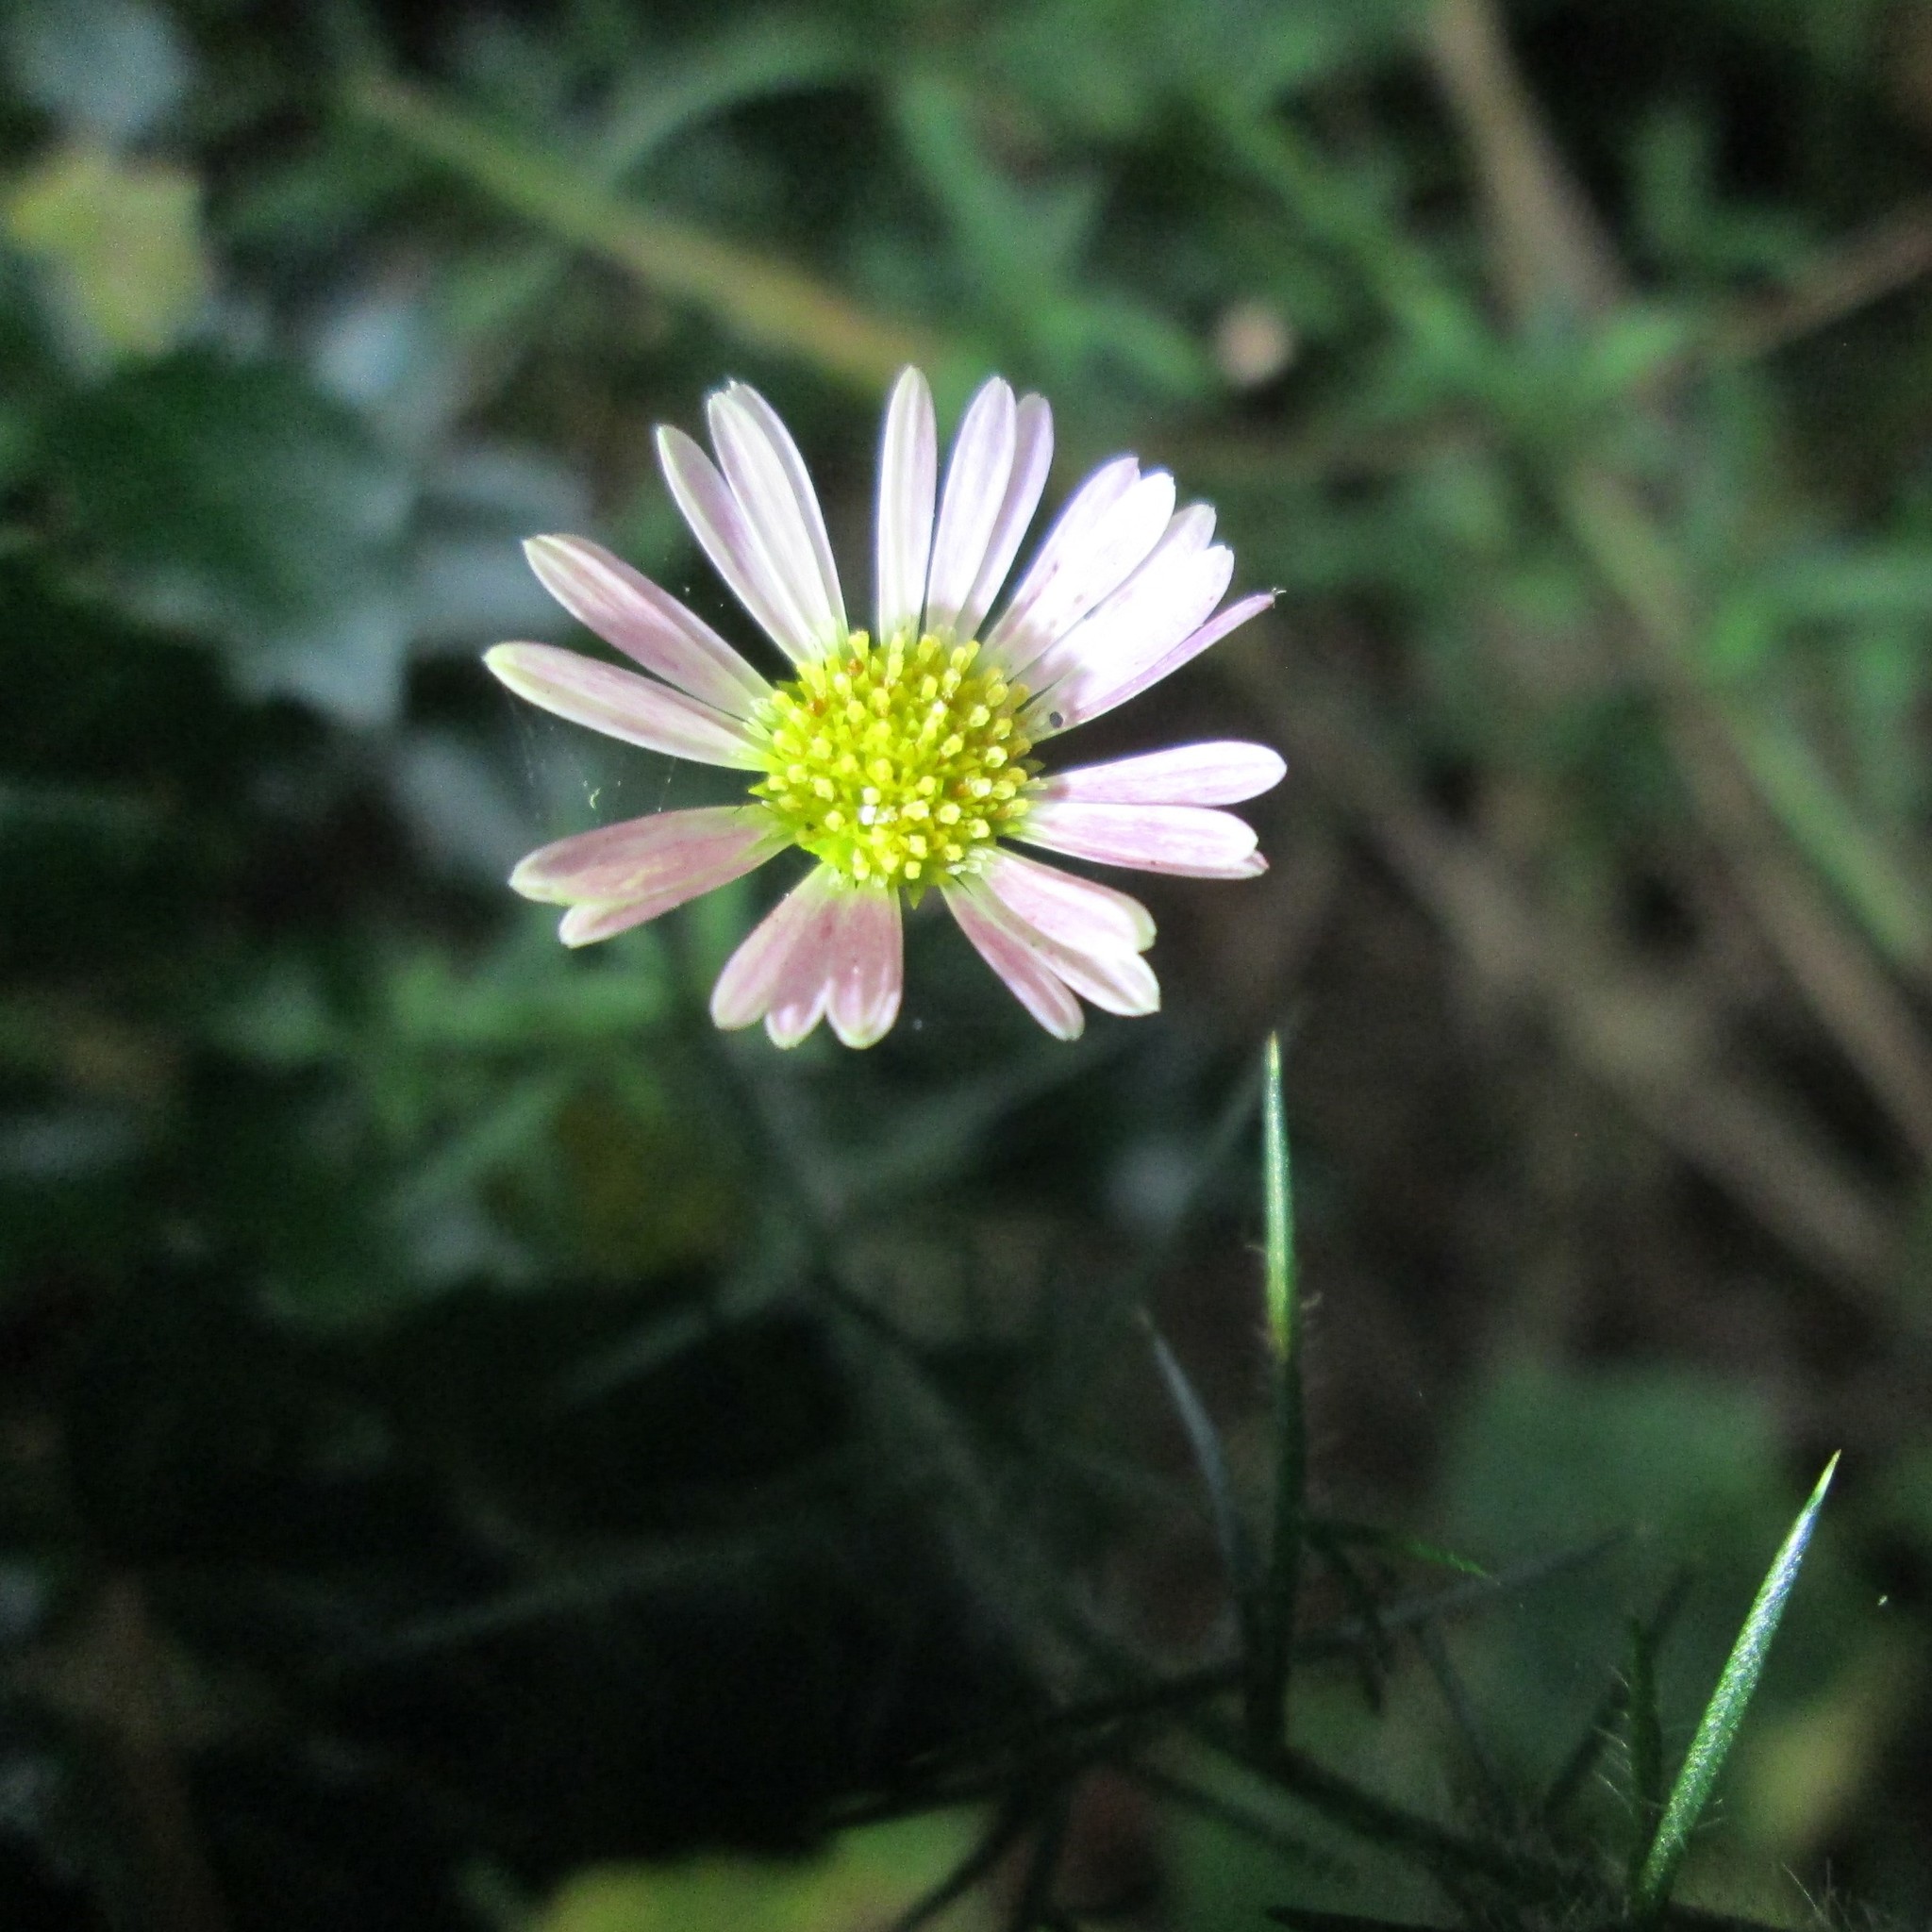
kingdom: Plantae
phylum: Tracheophyta
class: Magnoliopsida
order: Asterales
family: Asteraceae
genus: Erigeron
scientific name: Erigeron karvinskianus
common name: Mexican fleabane
